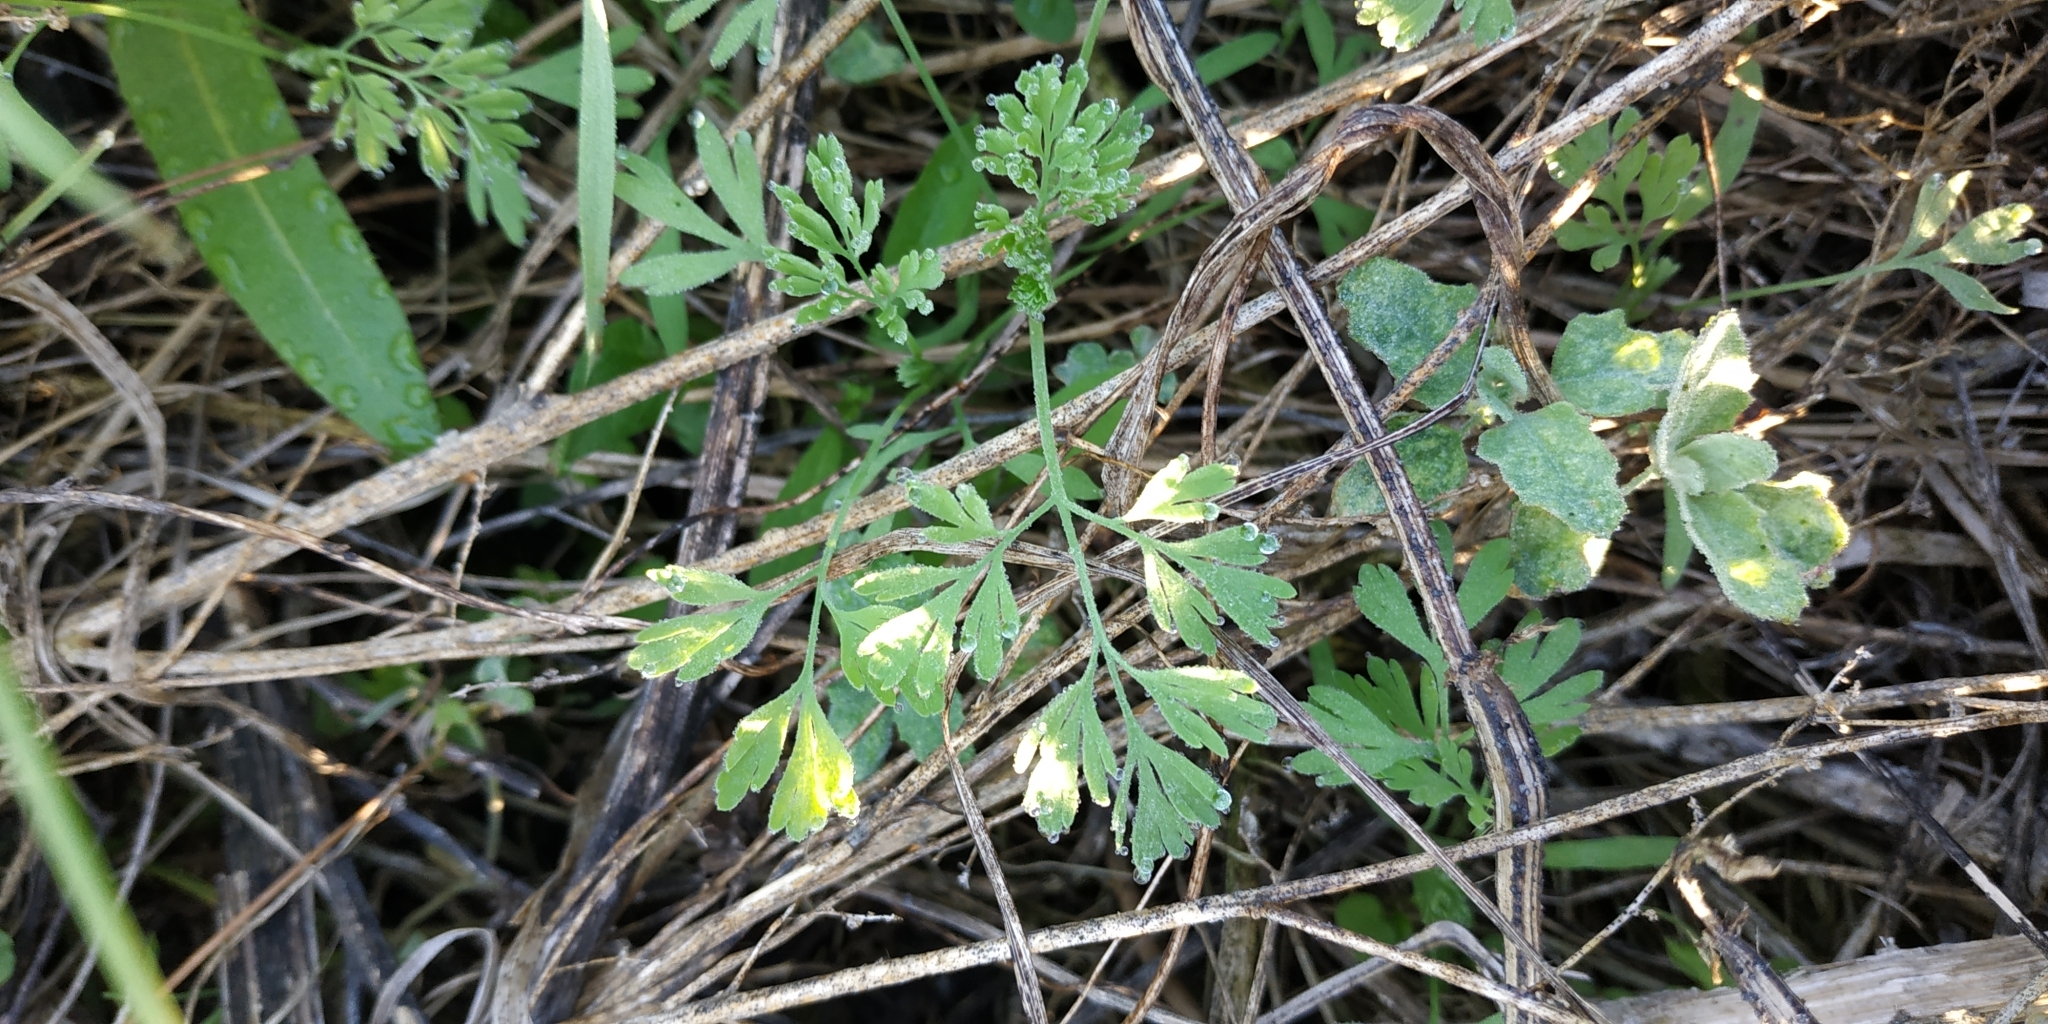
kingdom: Plantae
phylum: Tracheophyta
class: Magnoliopsida
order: Asterales
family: Asteraceae
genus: Artemisia
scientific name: Artemisia absinthium
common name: Wormwood
